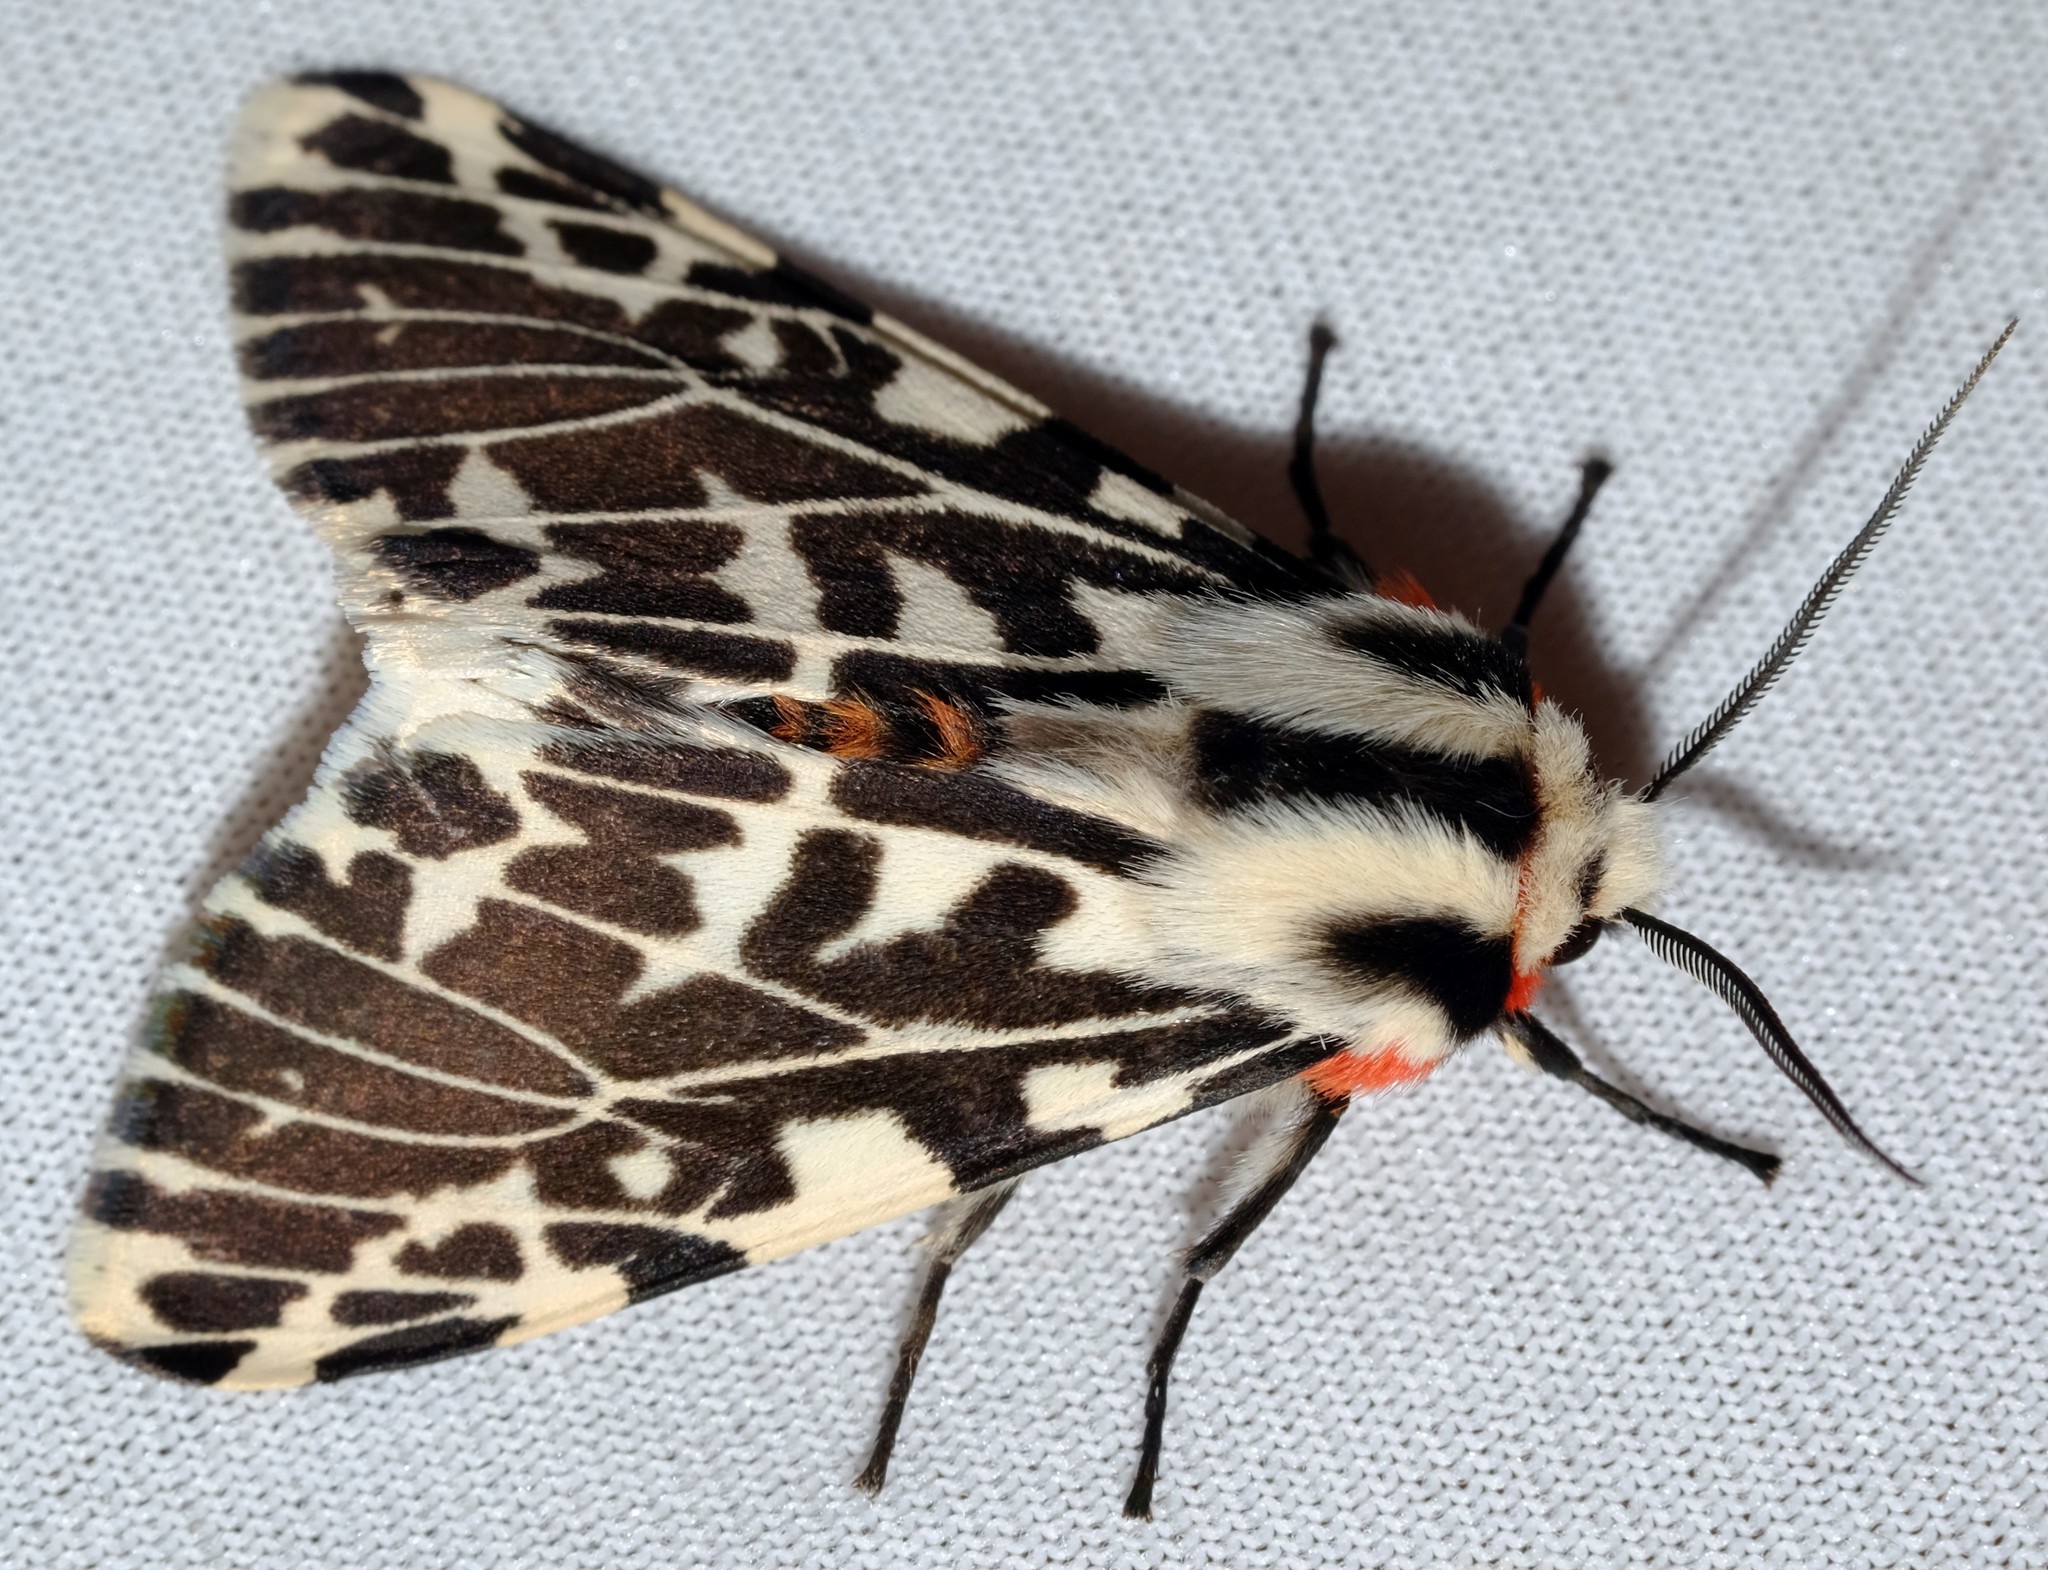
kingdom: Animalia
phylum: Arthropoda
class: Insecta
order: Lepidoptera
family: Erebidae
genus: Ardices
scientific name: Ardices glatignyi
